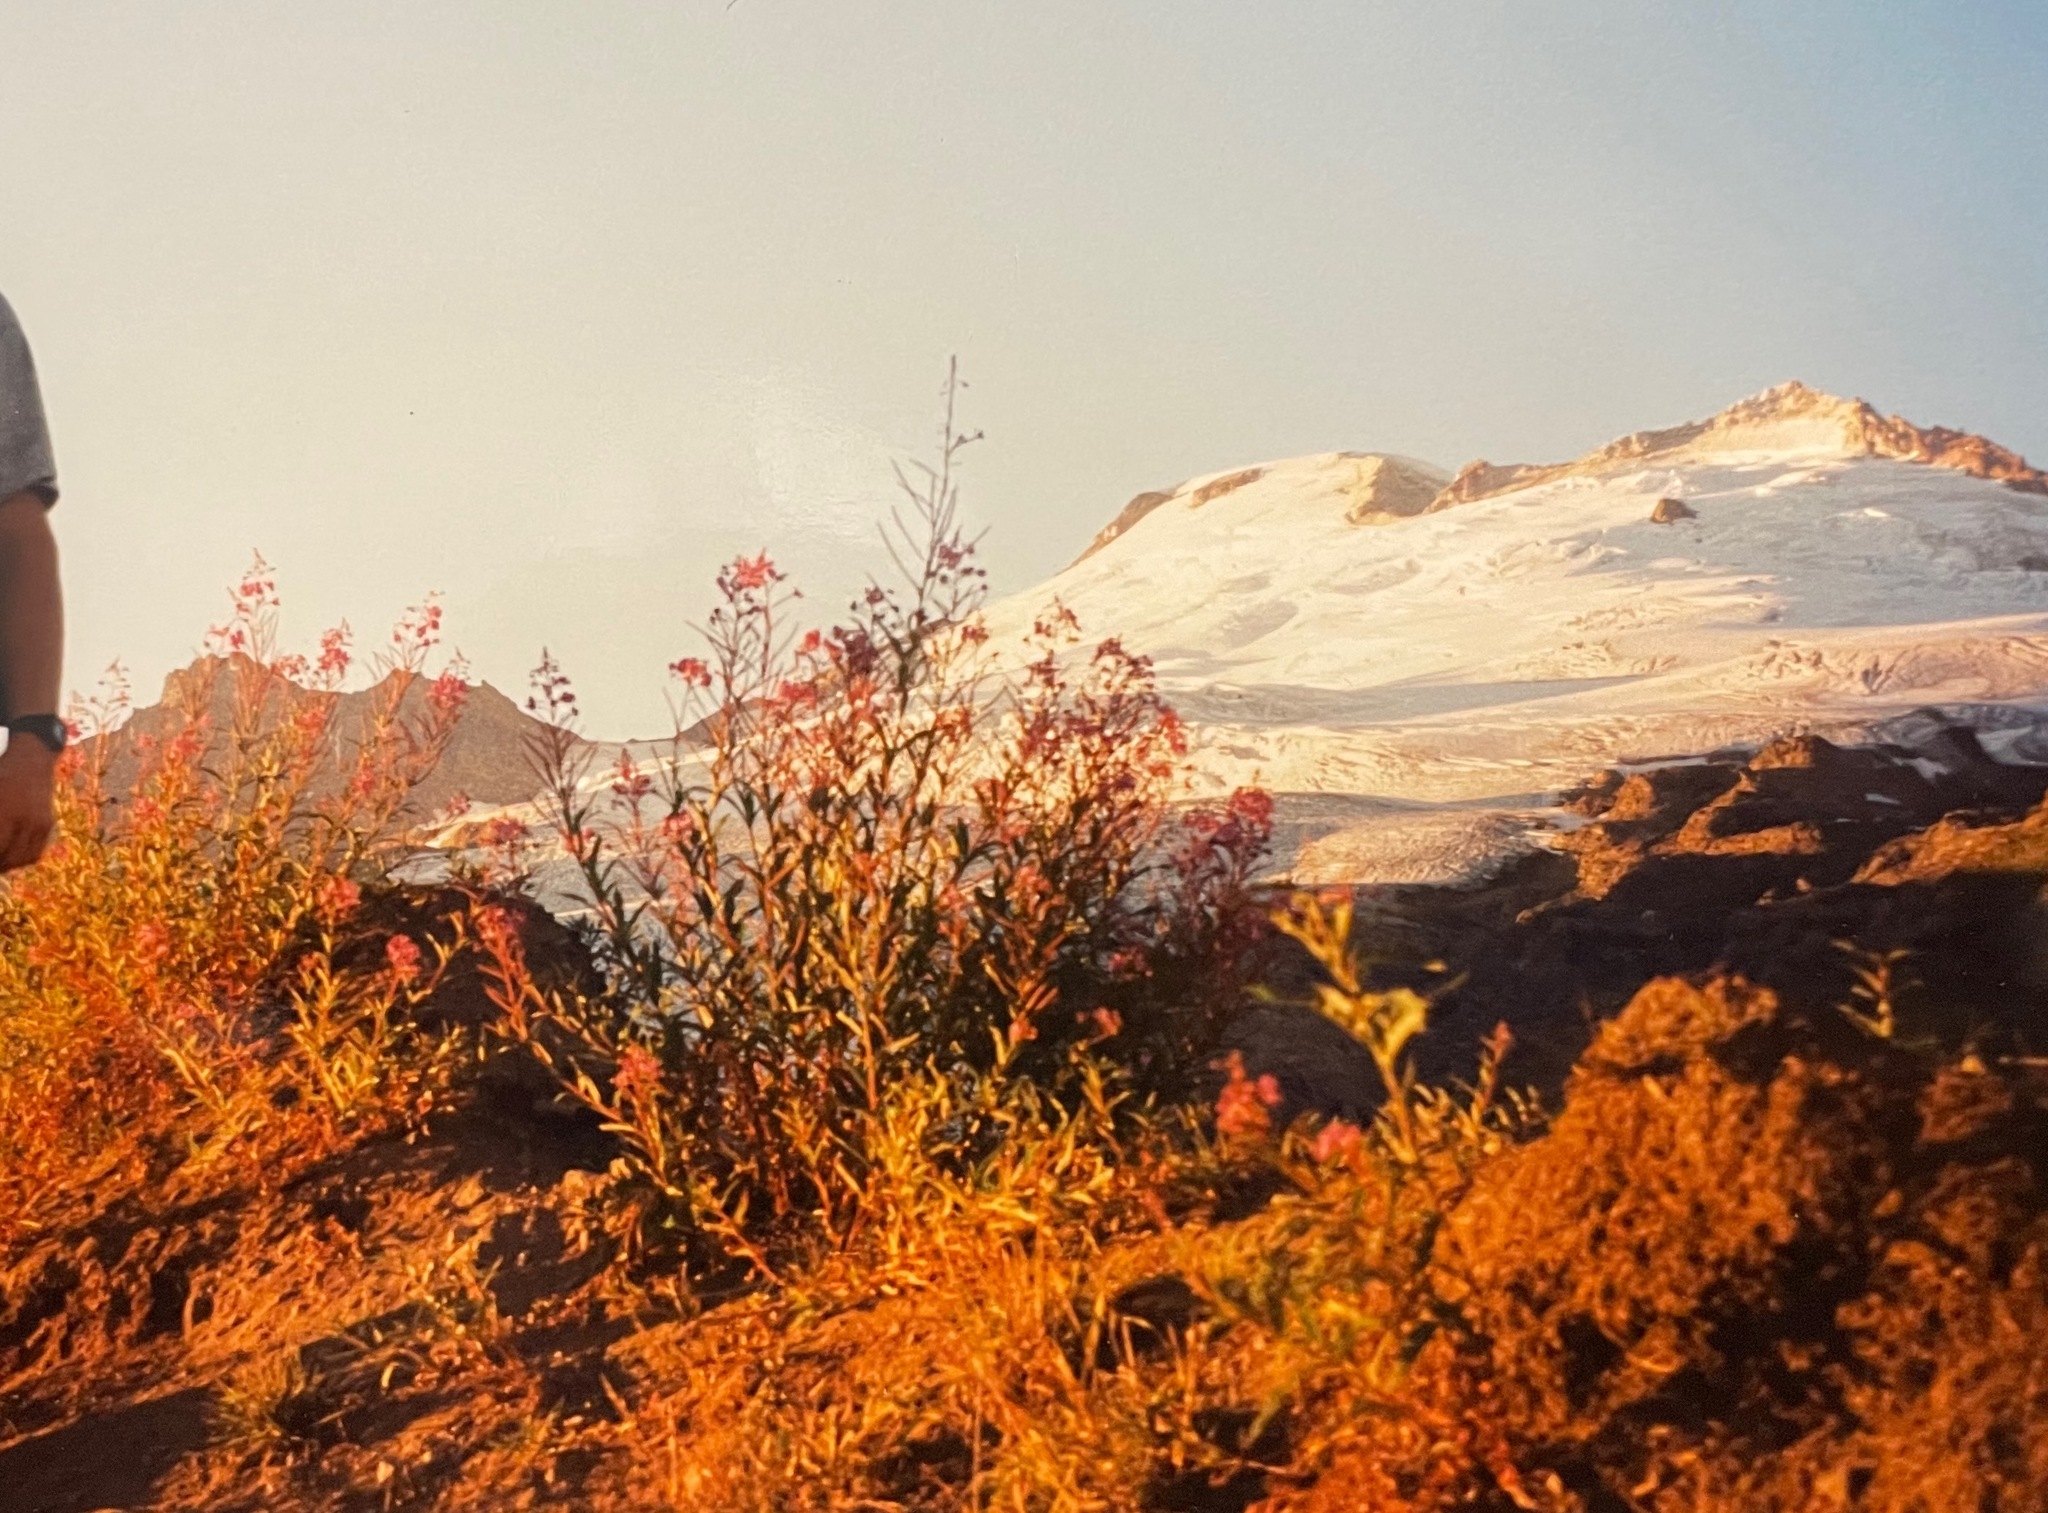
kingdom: Plantae
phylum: Tracheophyta
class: Magnoliopsida
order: Myrtales
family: Onagraceae
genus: Chamaenerion
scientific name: Chamaenerion angustifolium
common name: Fireweed
